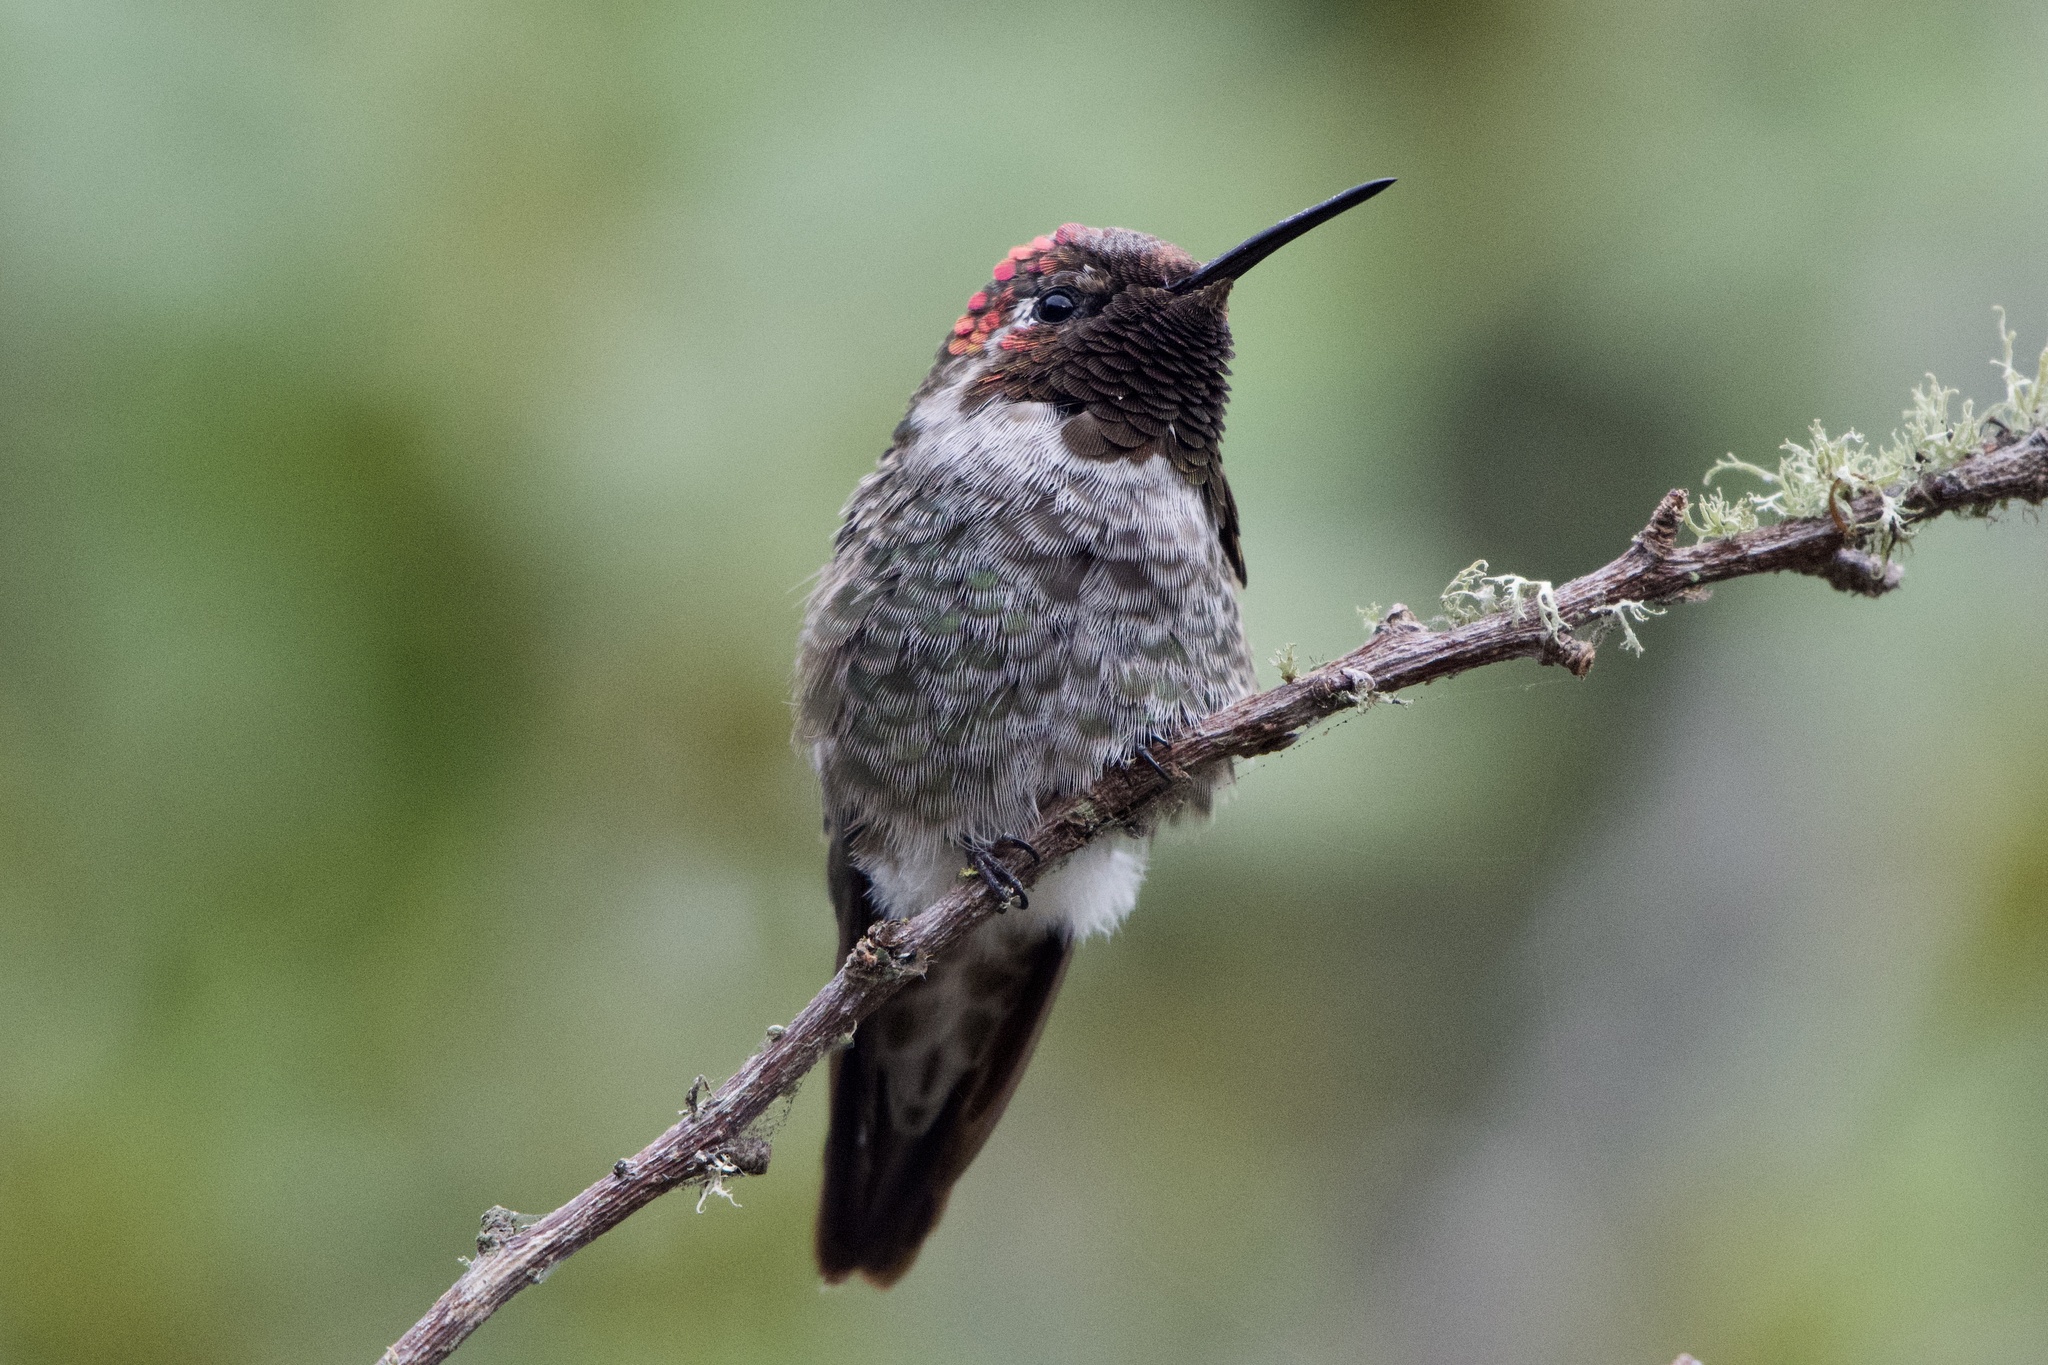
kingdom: Animalia
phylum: Chordata
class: Aves
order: Apodiformes
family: Trochilidae
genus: Calypte
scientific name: Calypte anna
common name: Anna's hummingbird
